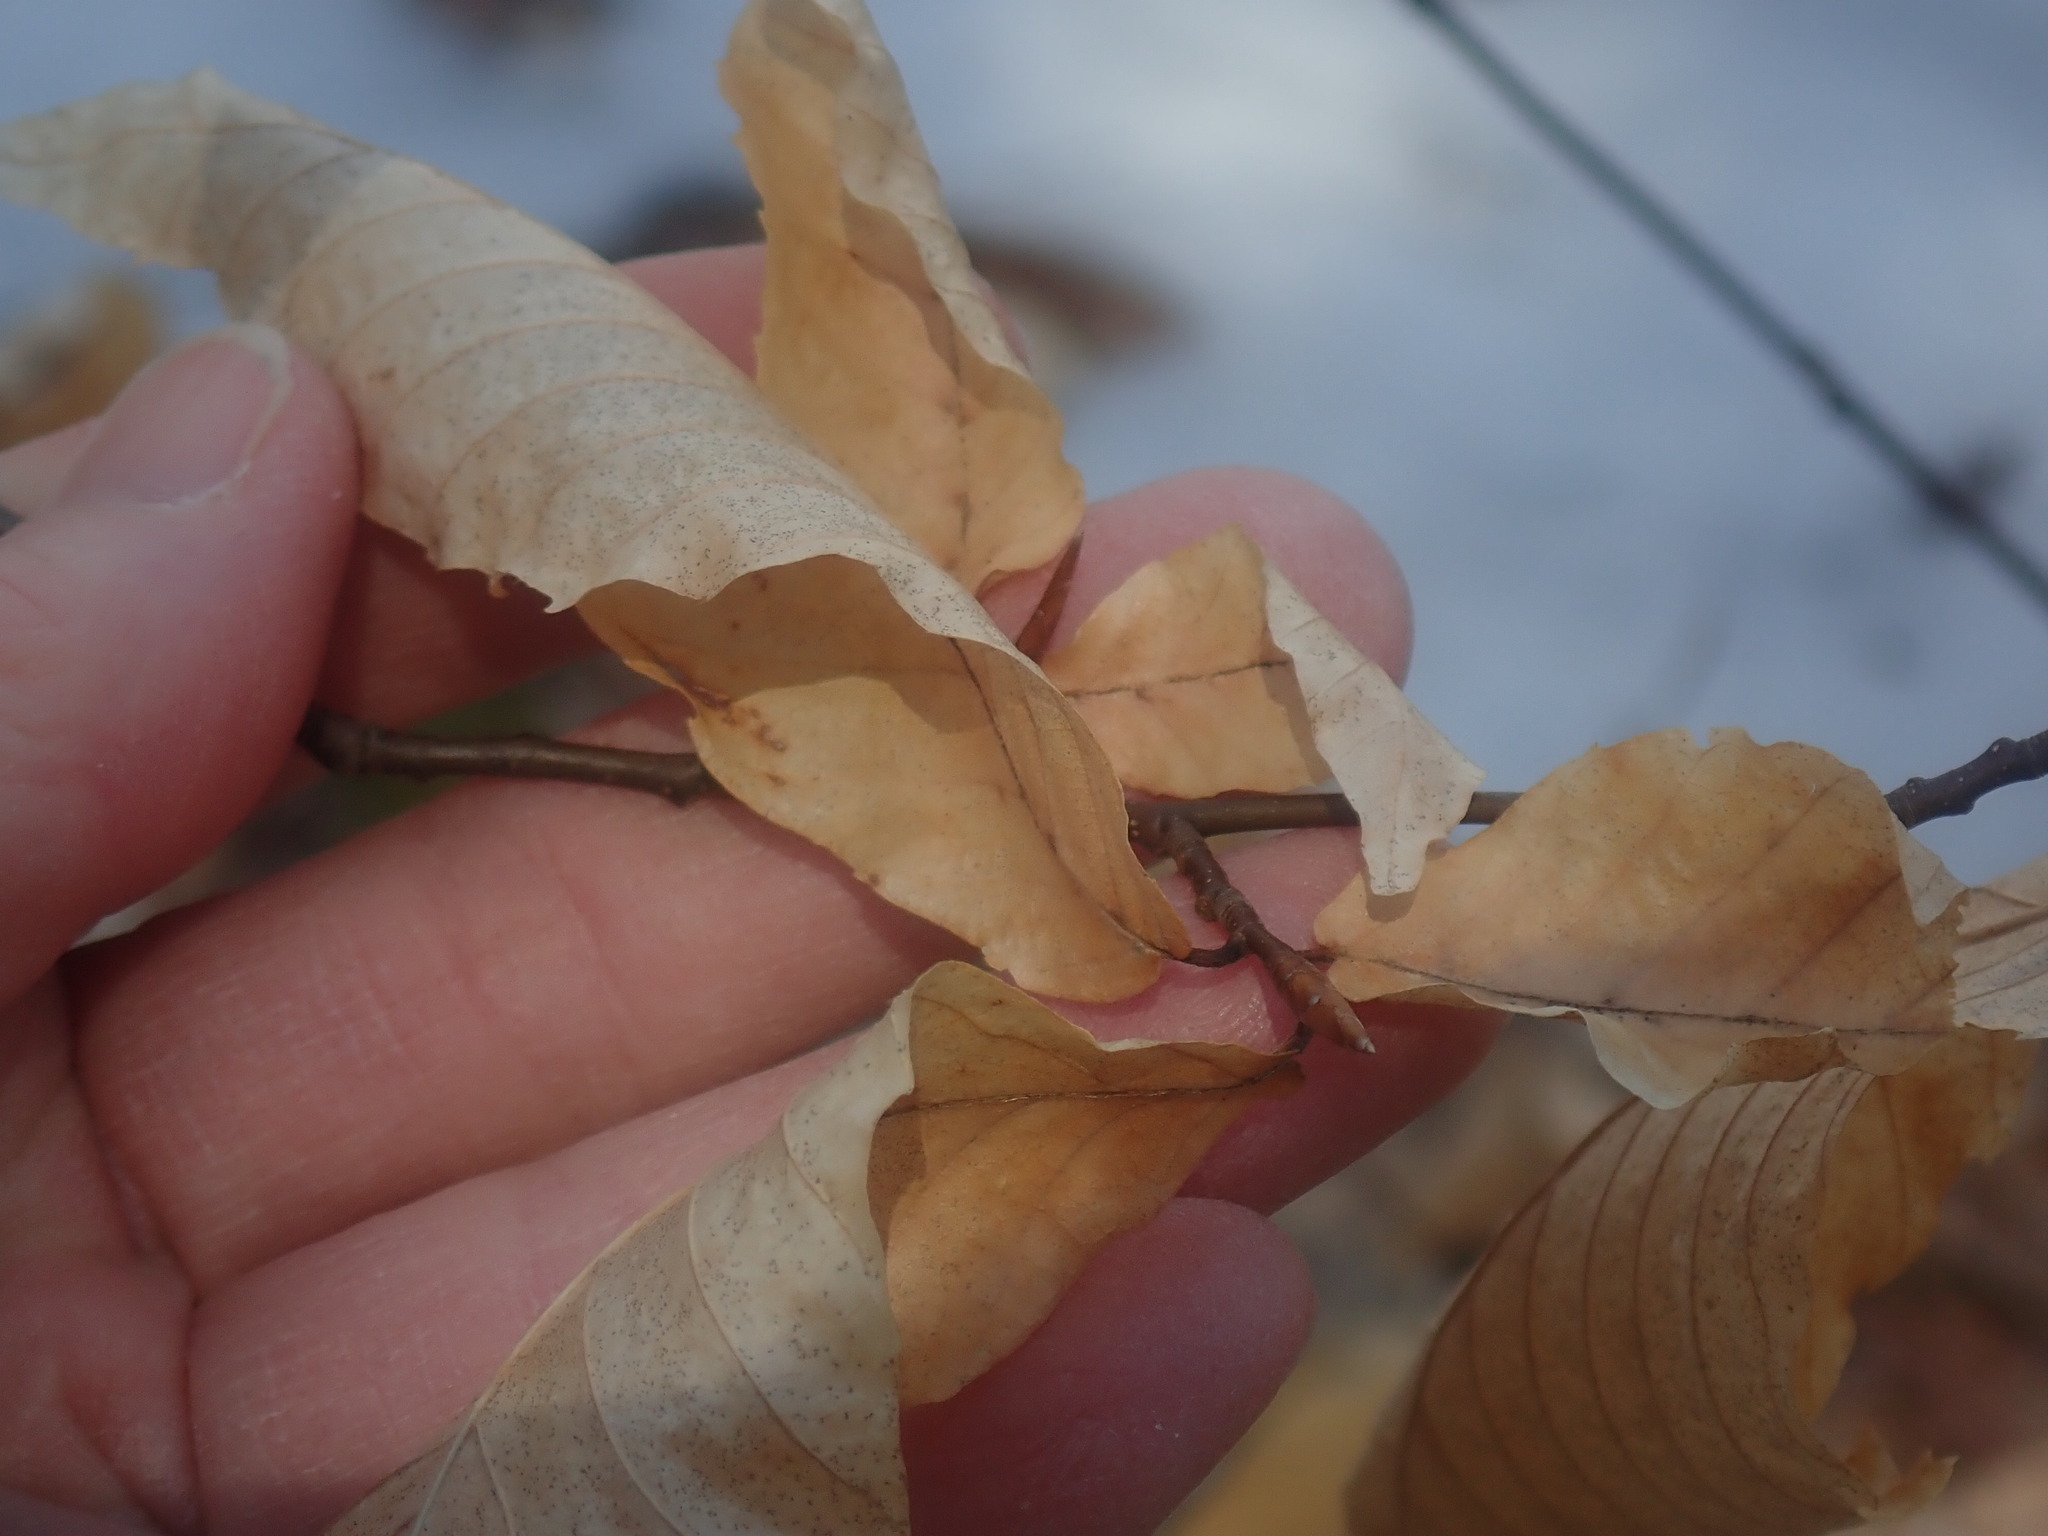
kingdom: Plantae
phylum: Tracheophyta
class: Magnoliopsida
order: Fagales
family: Fagaceae
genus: Fagus
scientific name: Fagus grandifolia
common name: American beech
